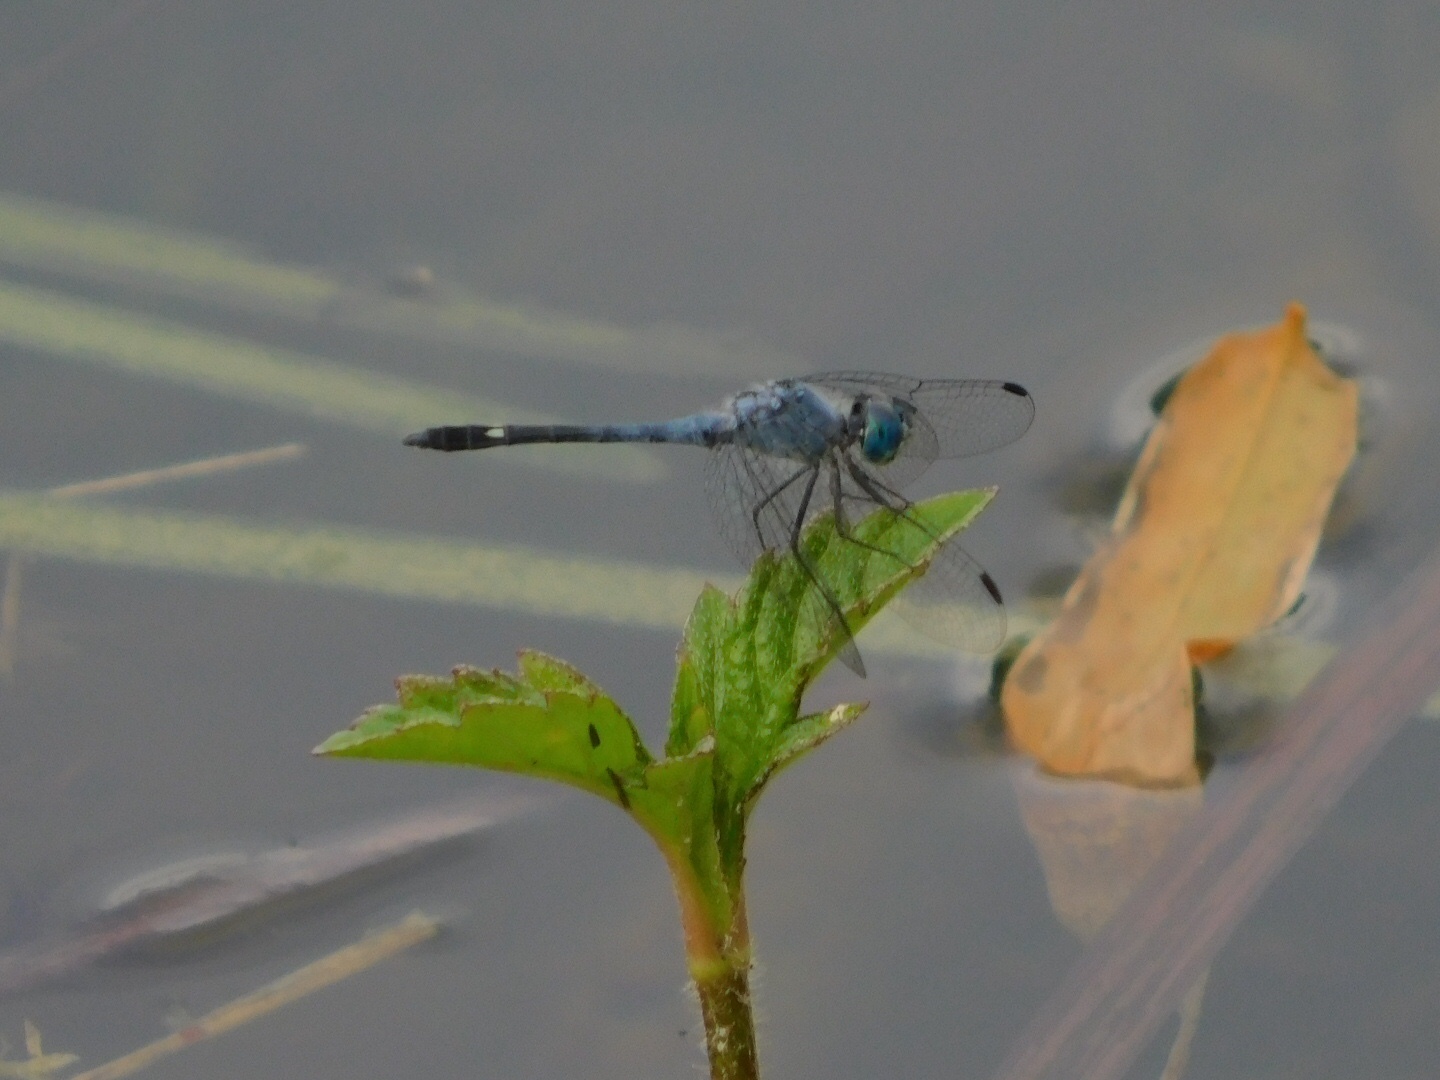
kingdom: Animalia
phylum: Arthropoda
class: Insecta
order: Odonata
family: Libellulidae
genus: Micrathyria
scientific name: Micrathyria aequalis
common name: Spot-tailed dasher
